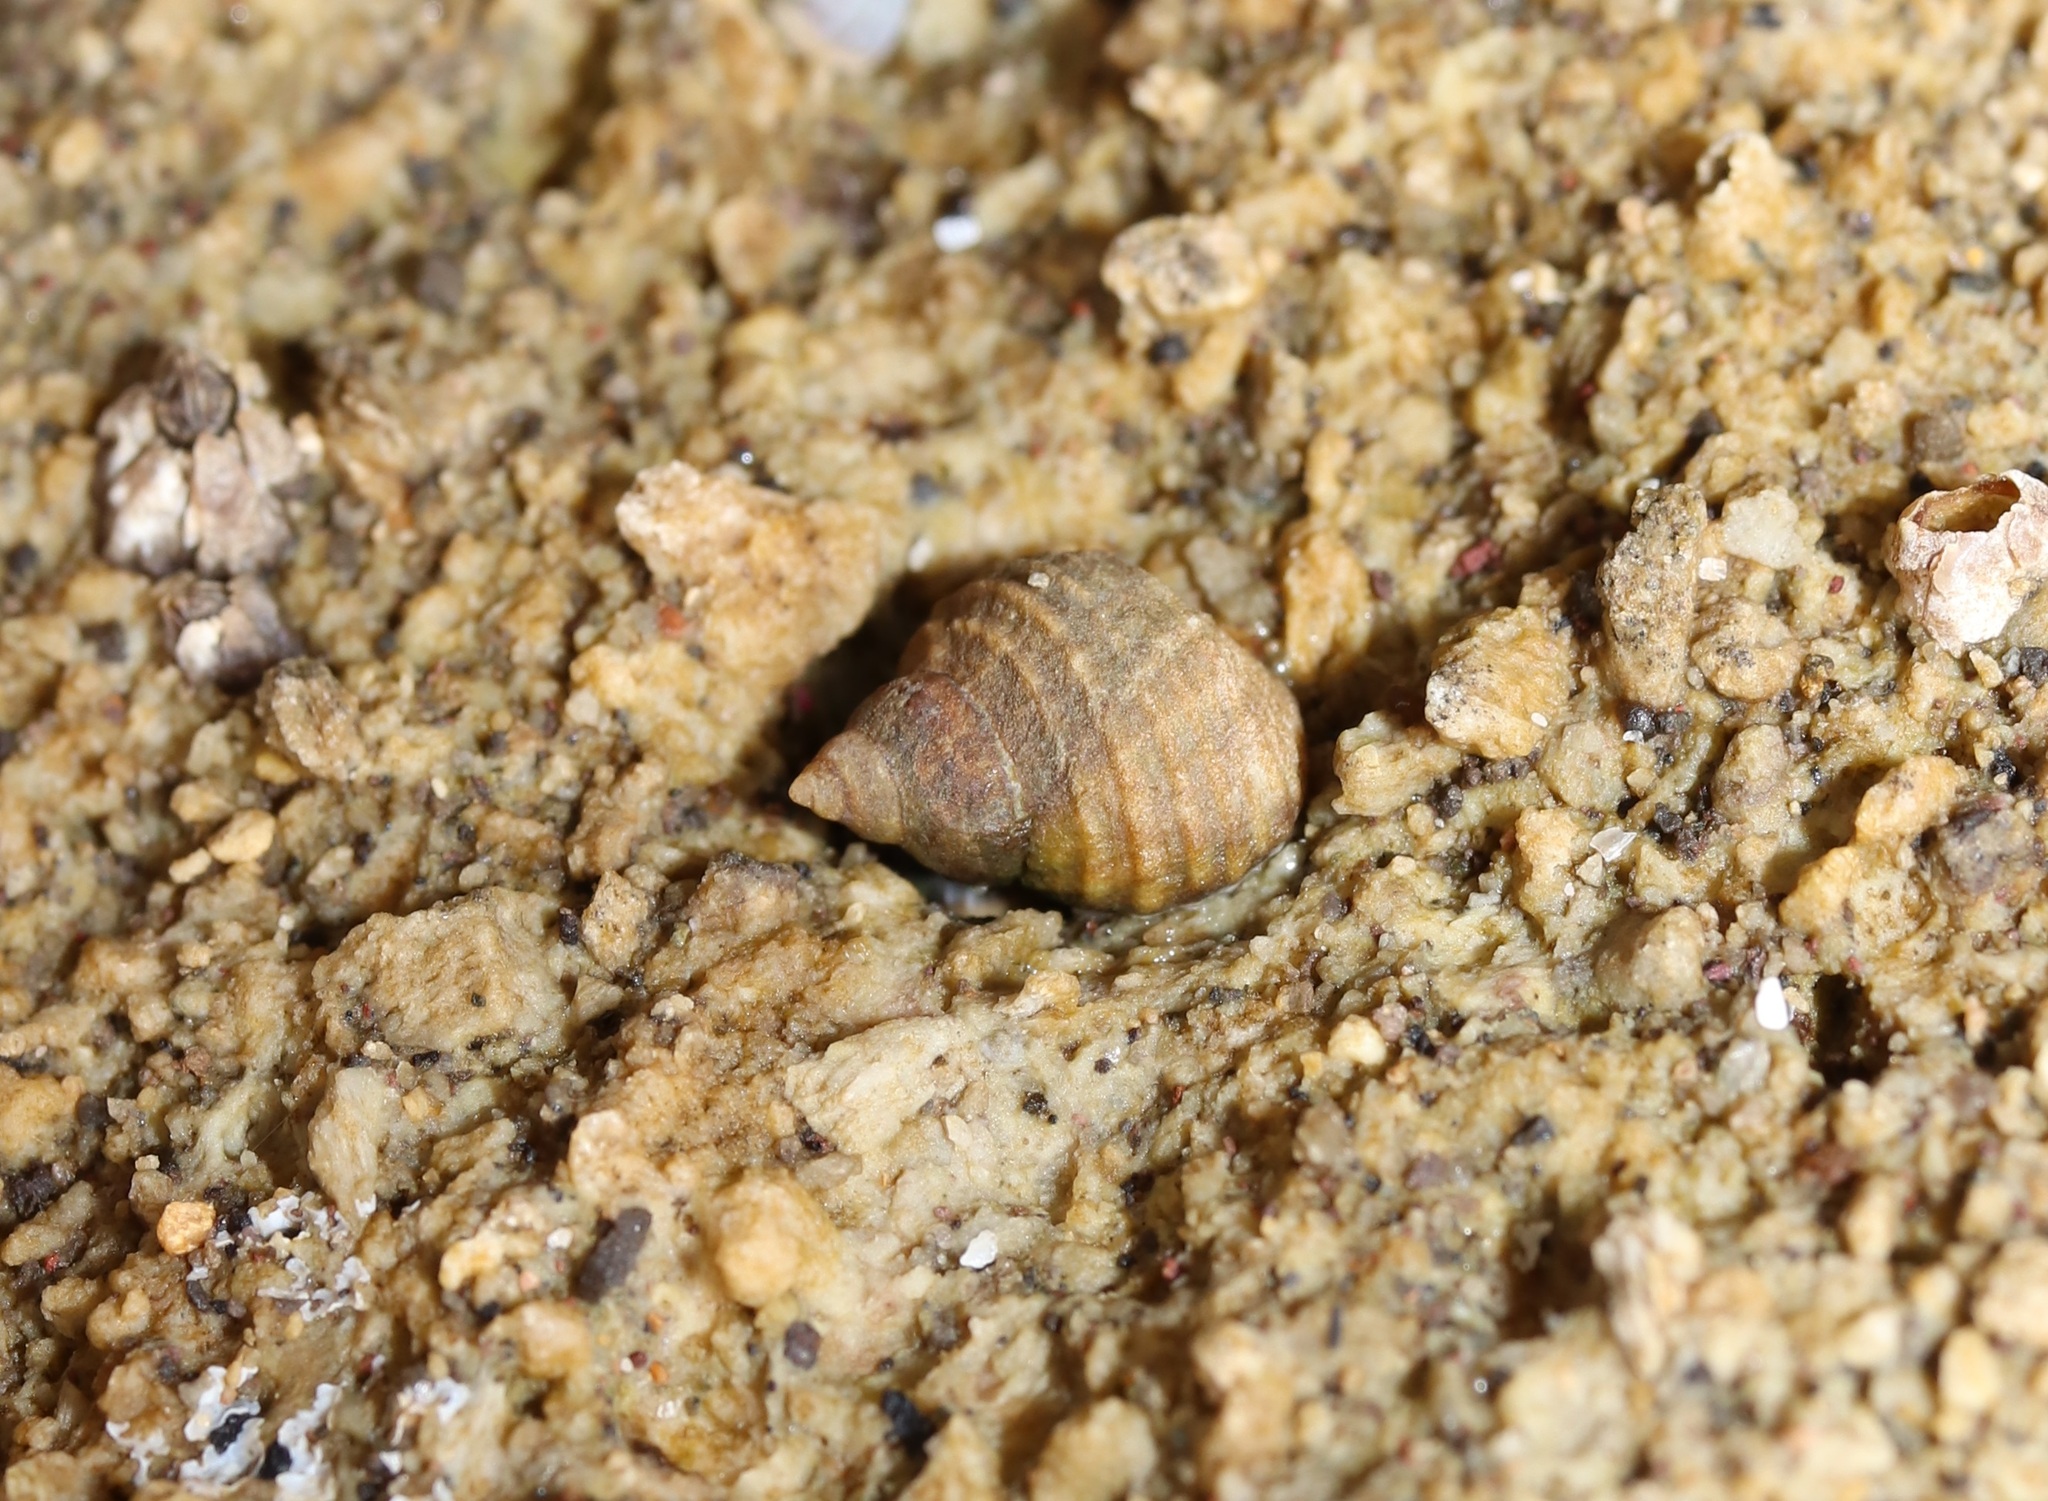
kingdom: Animalia
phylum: Mollusca
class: Gastropoda
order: Littorinimorpha
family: Littorinidae
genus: Echinolittorina
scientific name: Echinolittorina radiata
